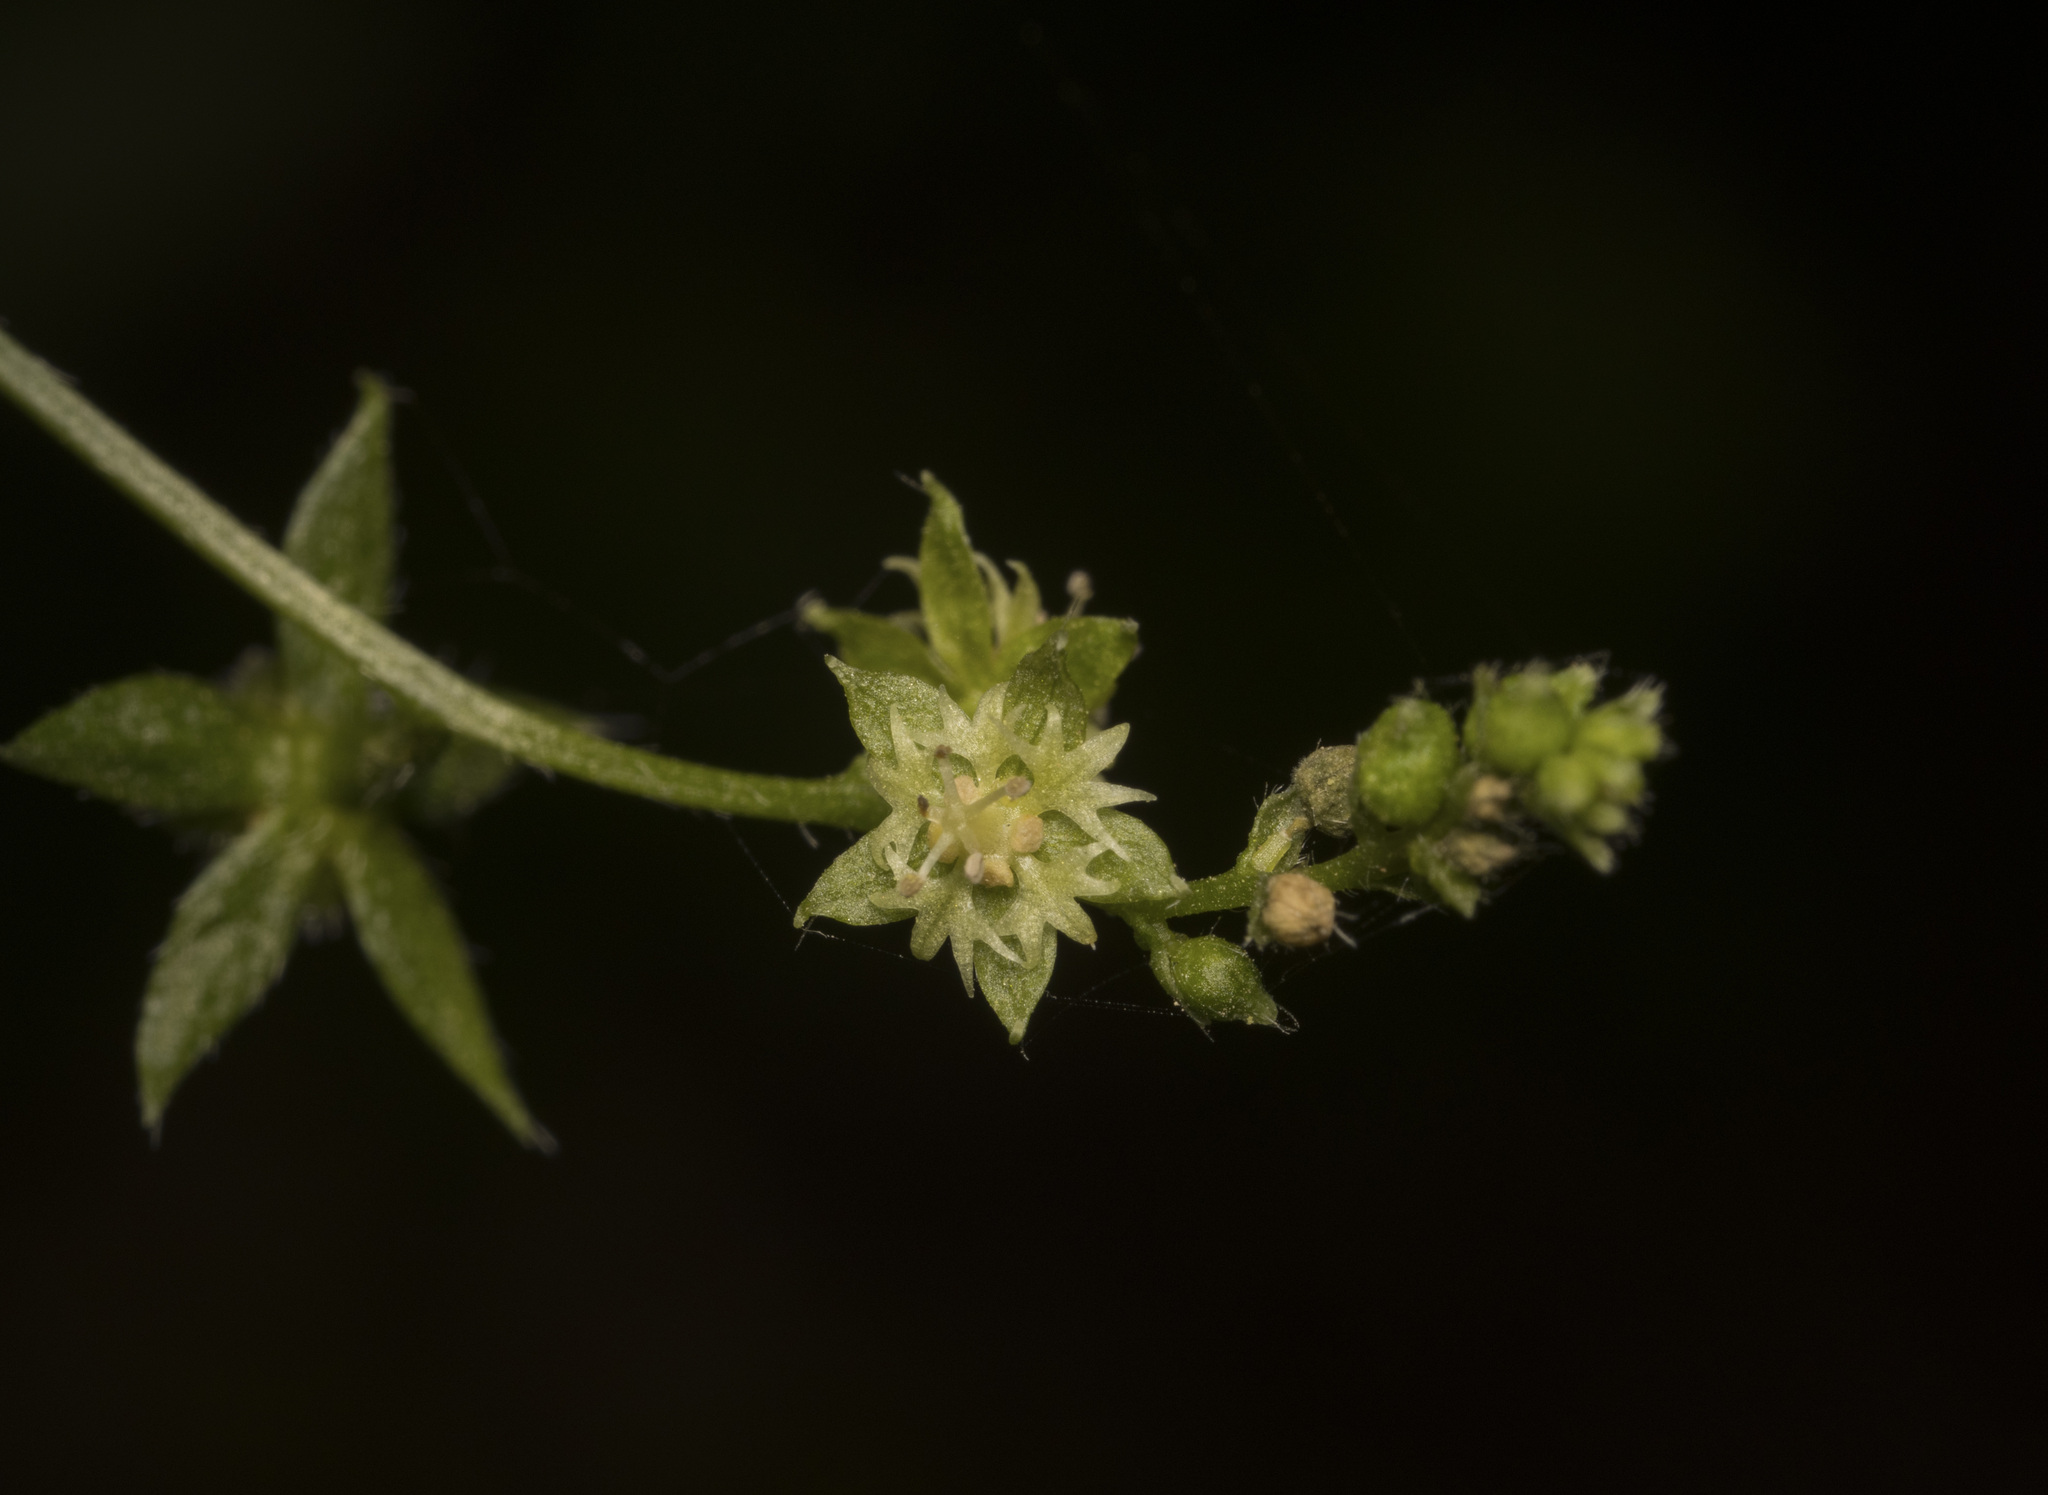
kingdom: Plantae
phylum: Tracheophyta
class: Magnoliopsida
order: Malpighiales
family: Euphorbiaceae
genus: Chiropetalum
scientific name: Chiropetalum tricuspidatum
